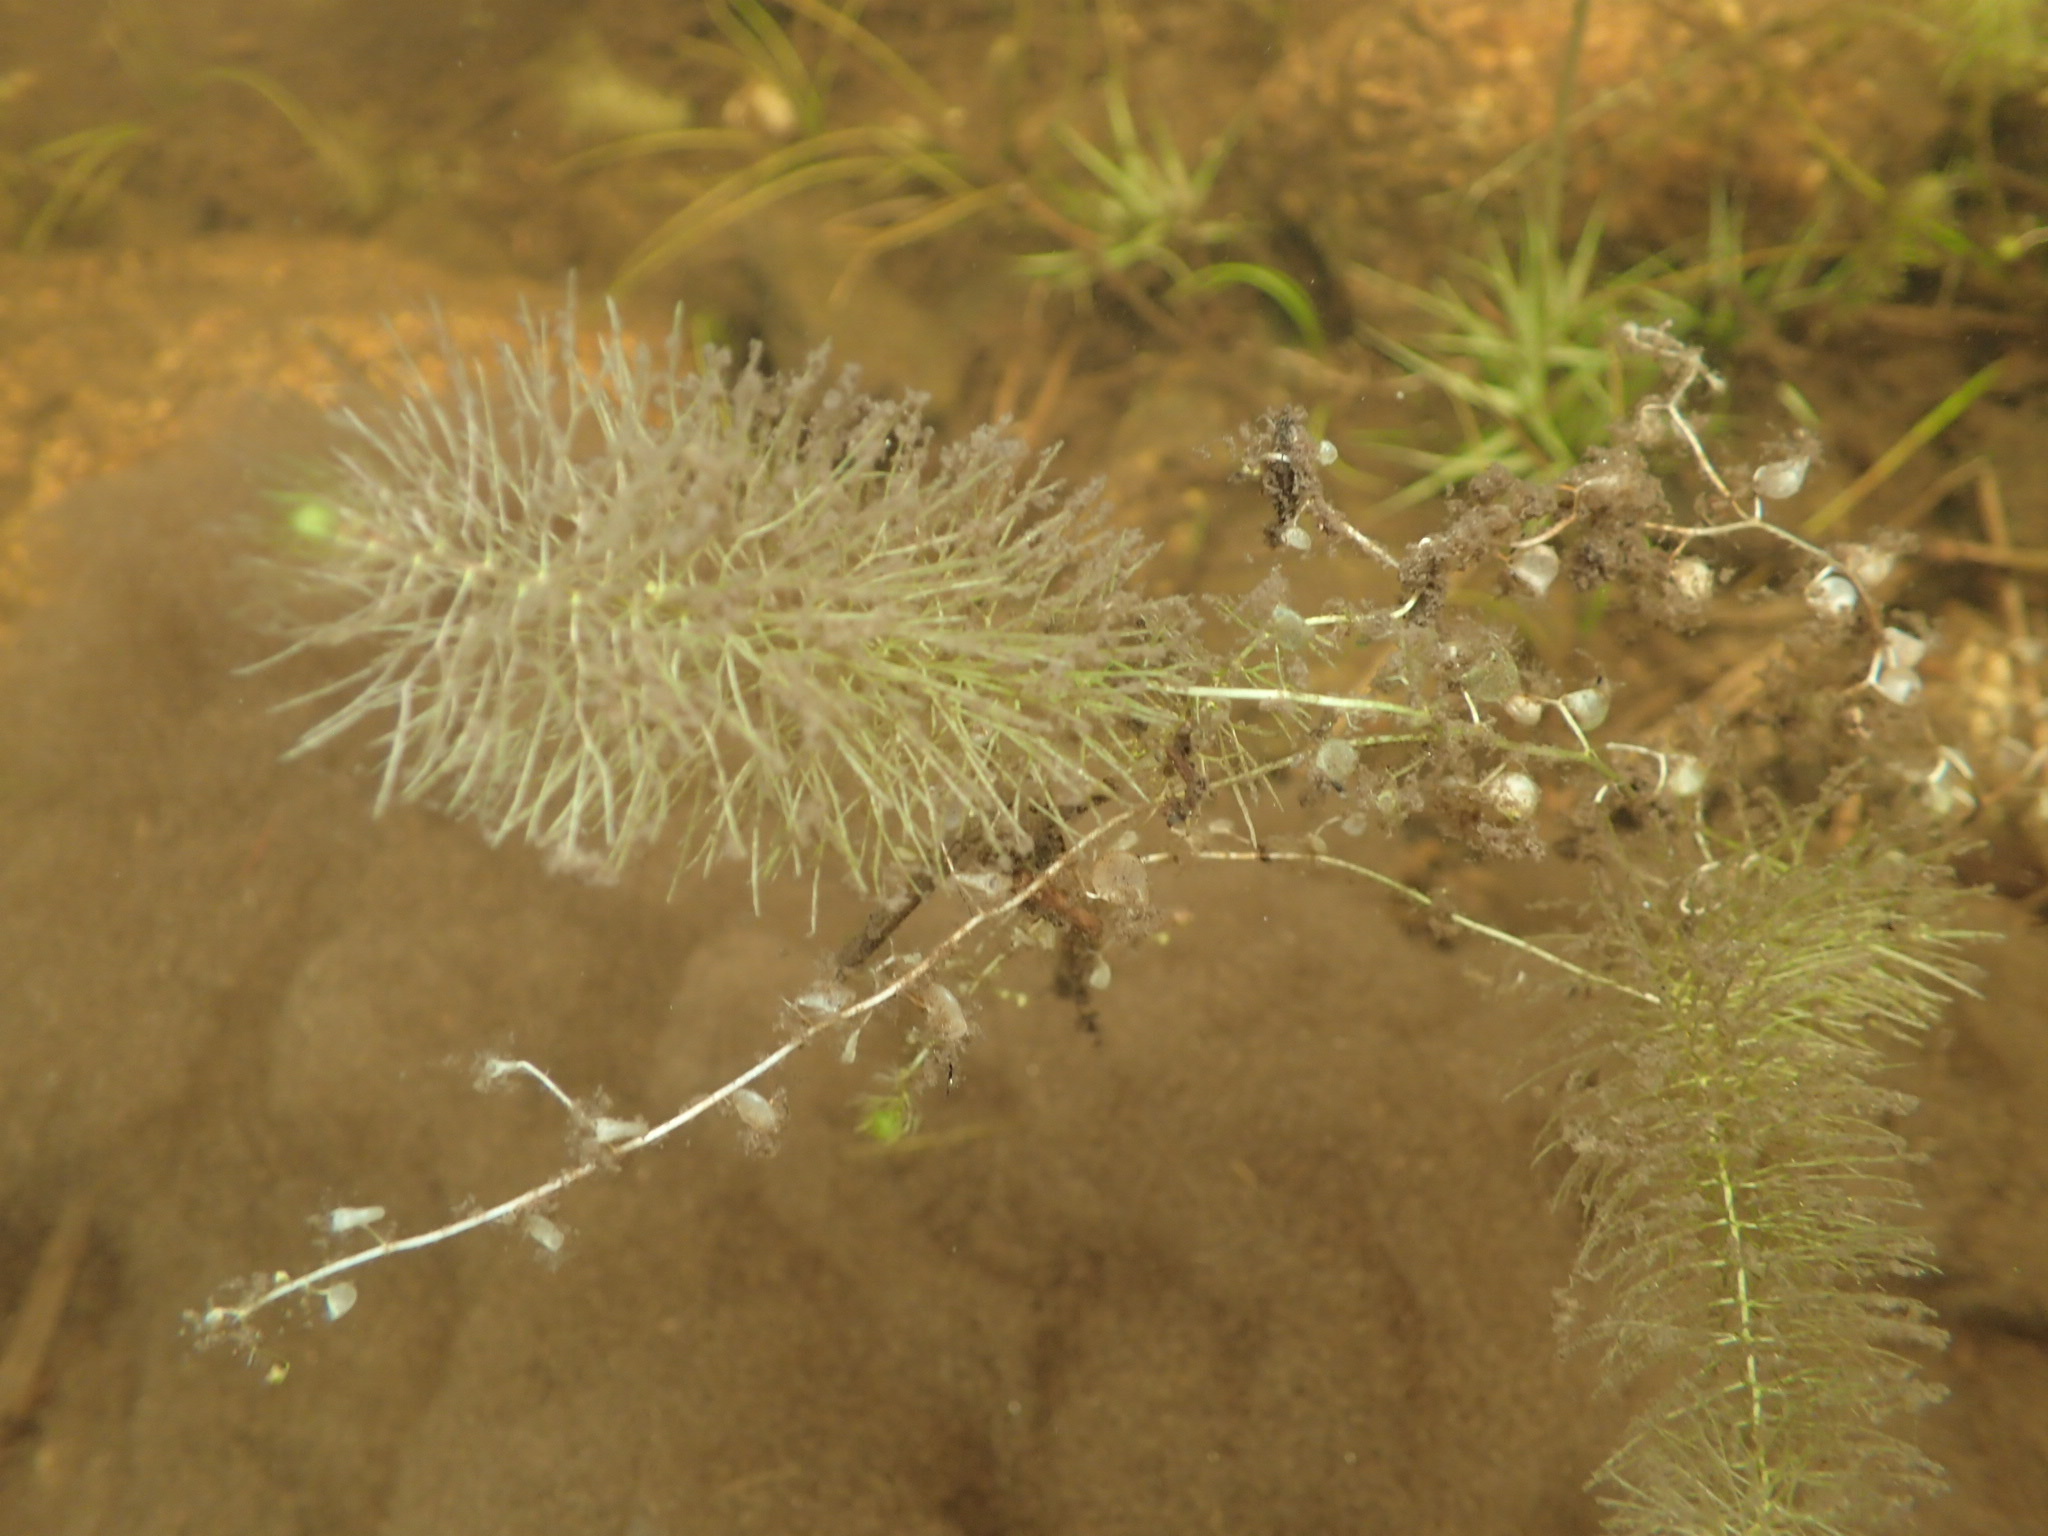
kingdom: Plantae
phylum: Tracheophyta
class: Magnoliopsida
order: Lamiales
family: Lentibulariaceae
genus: Utricularia
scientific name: Utricularia intermedia
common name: Intermediate bladderwort
